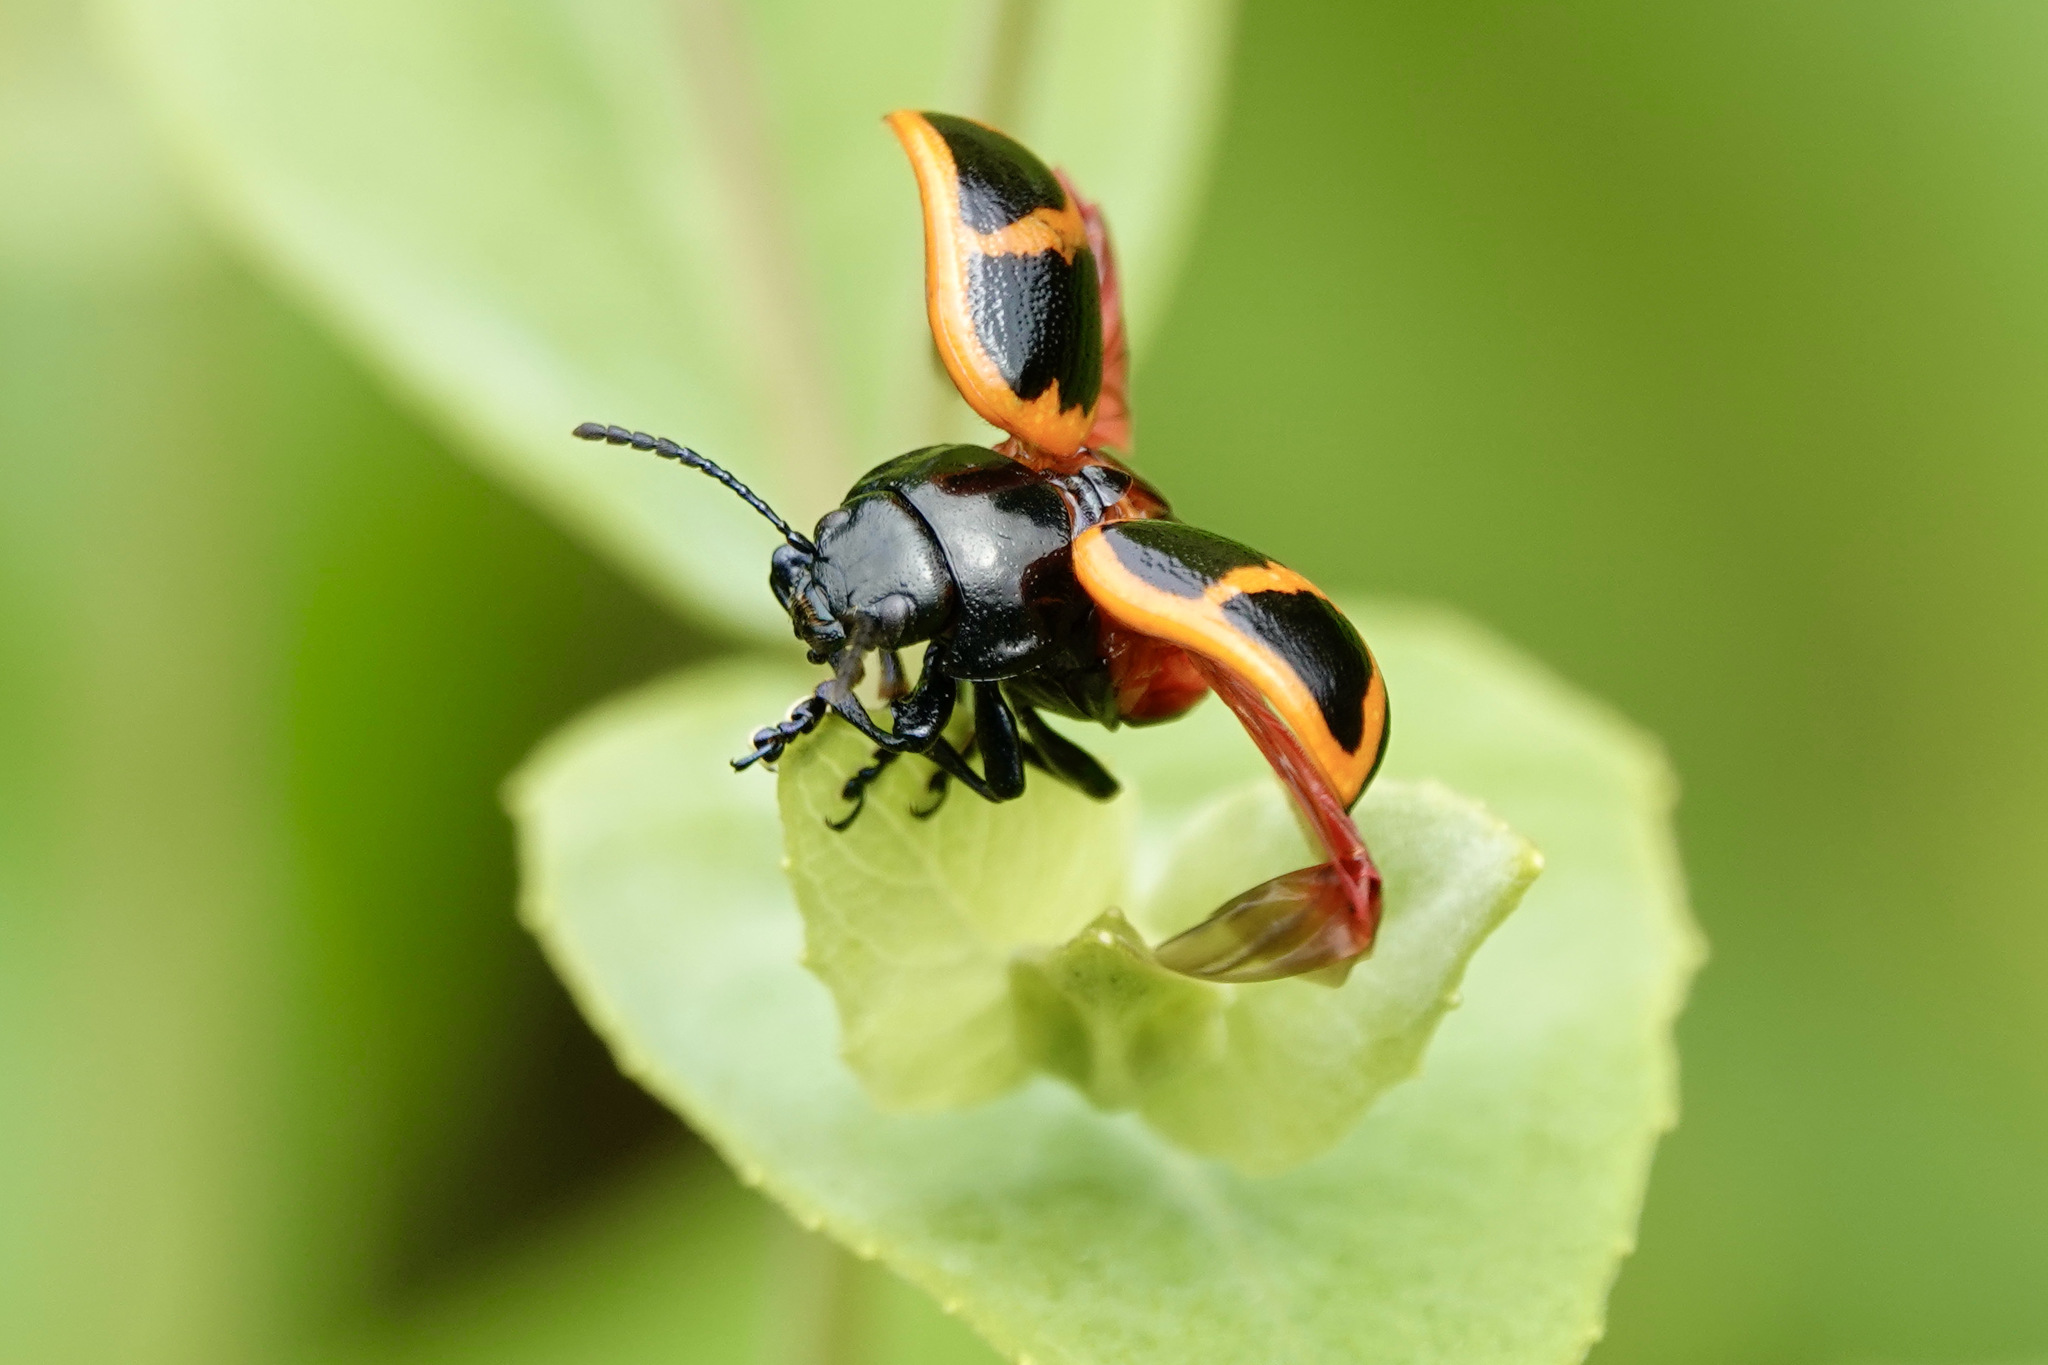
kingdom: Animalia
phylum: Arthropoda
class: Insecta
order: Coleoptera
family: Chrysomelidae
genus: Labidomera
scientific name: Labidomera clivicollis
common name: Swamp milkweed leaf beetle
